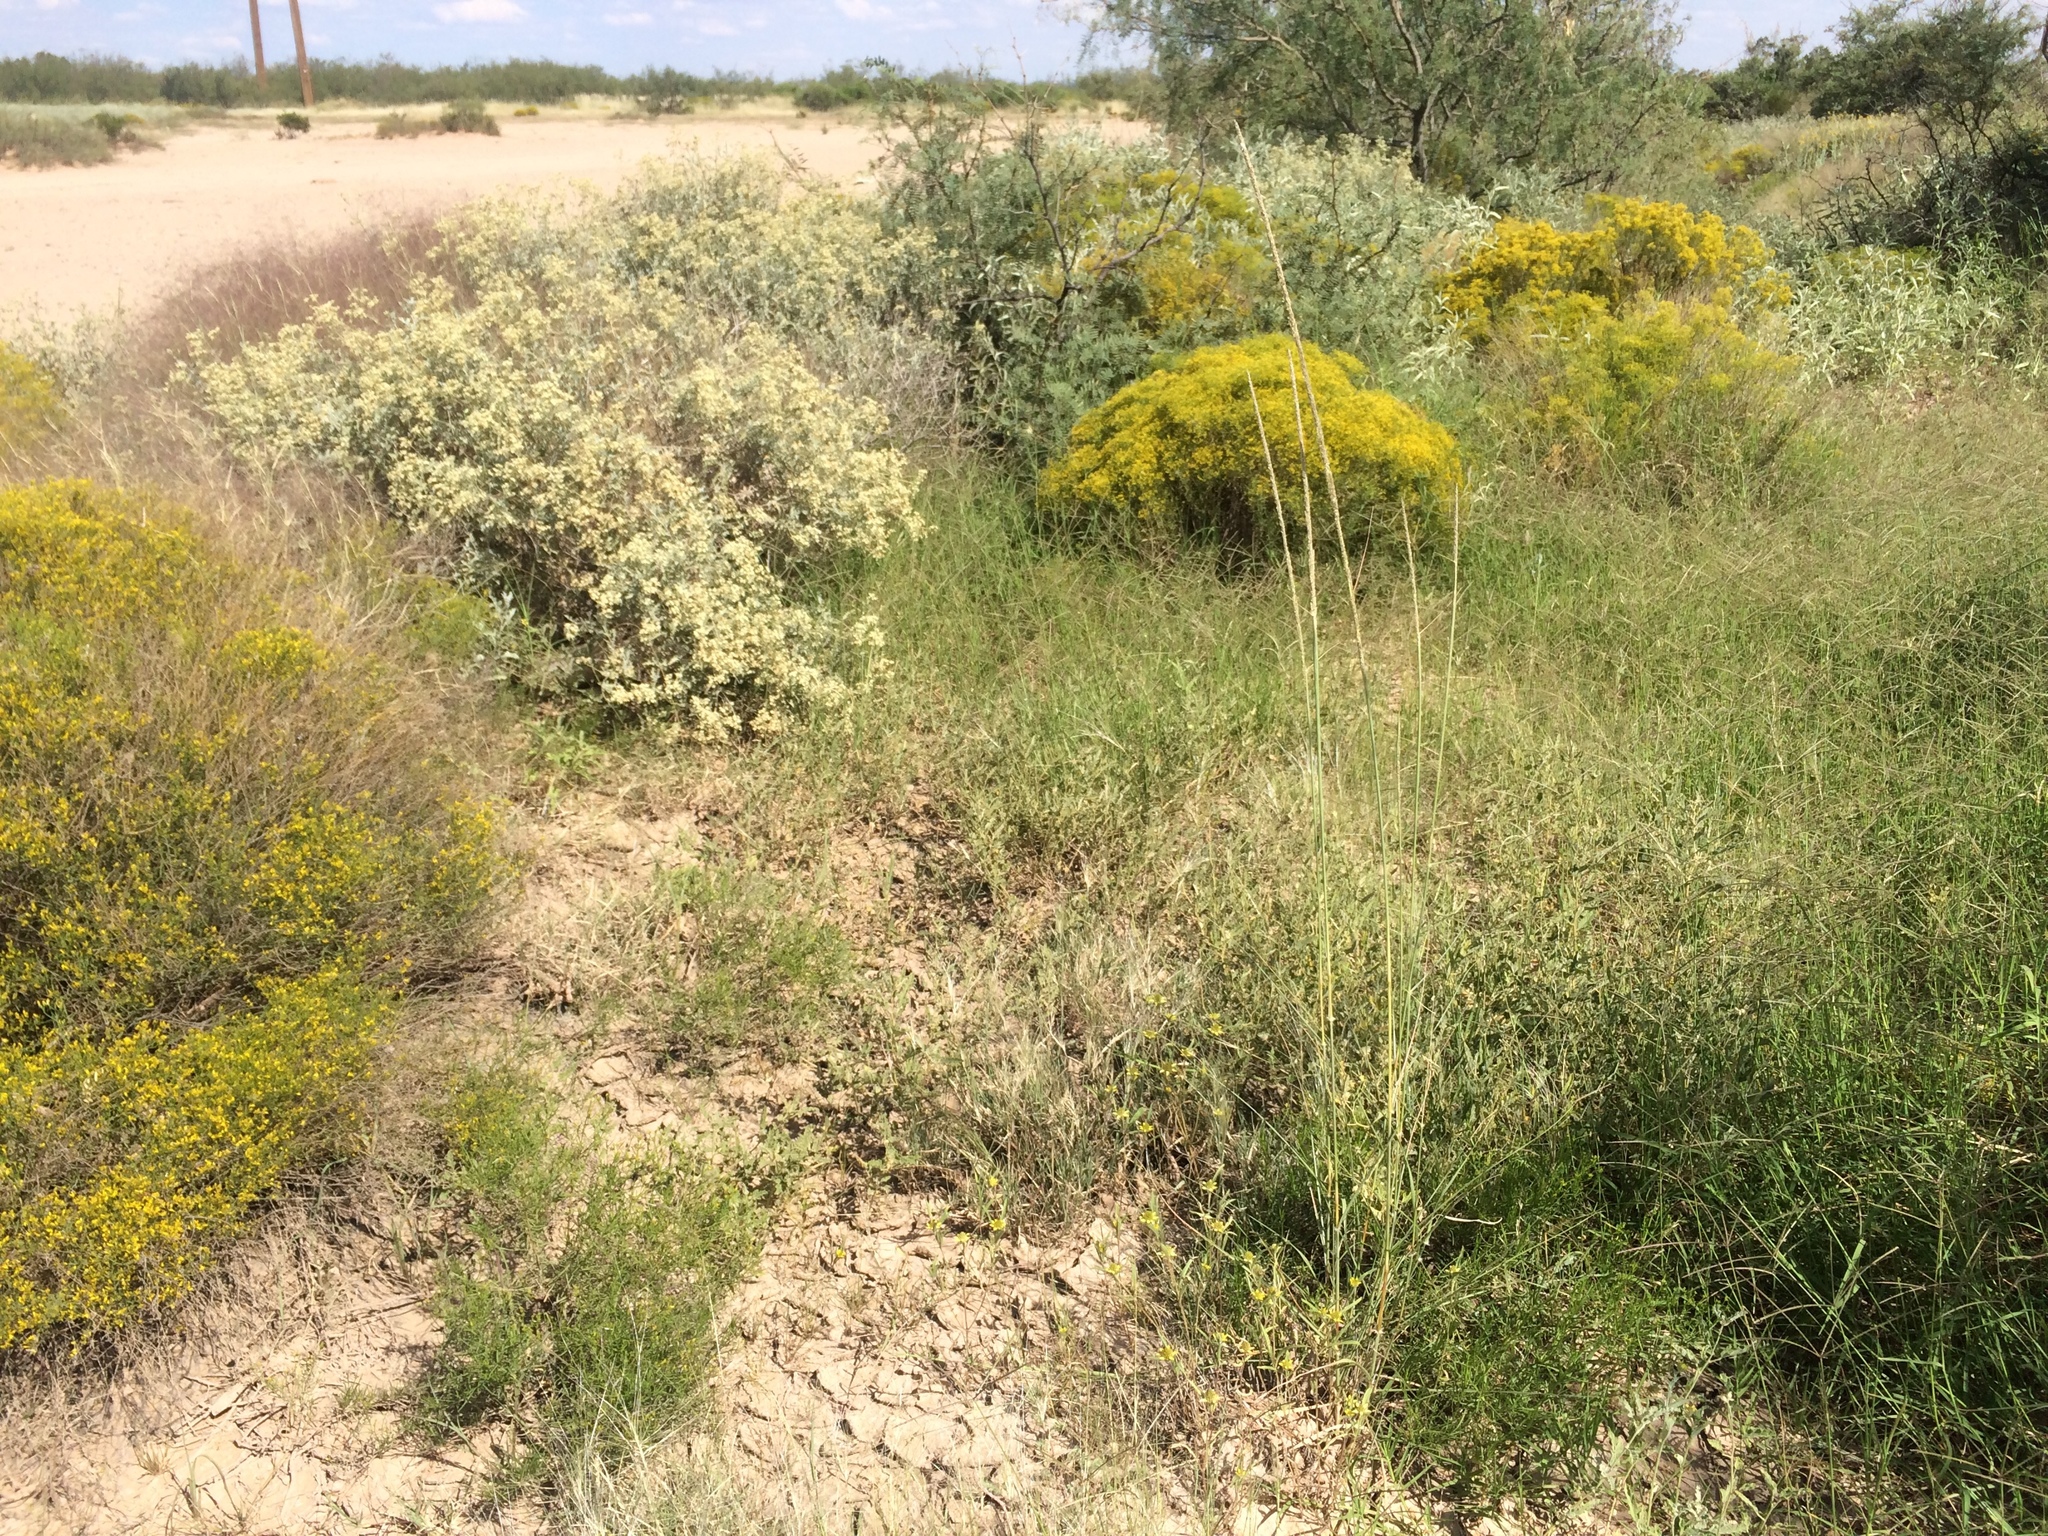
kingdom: Plantae
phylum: Tracheophyta
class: Liliopsida
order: Poales
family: Poaceae
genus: Sporobolus
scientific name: Sporobolus contractus
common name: Spike dropseed
